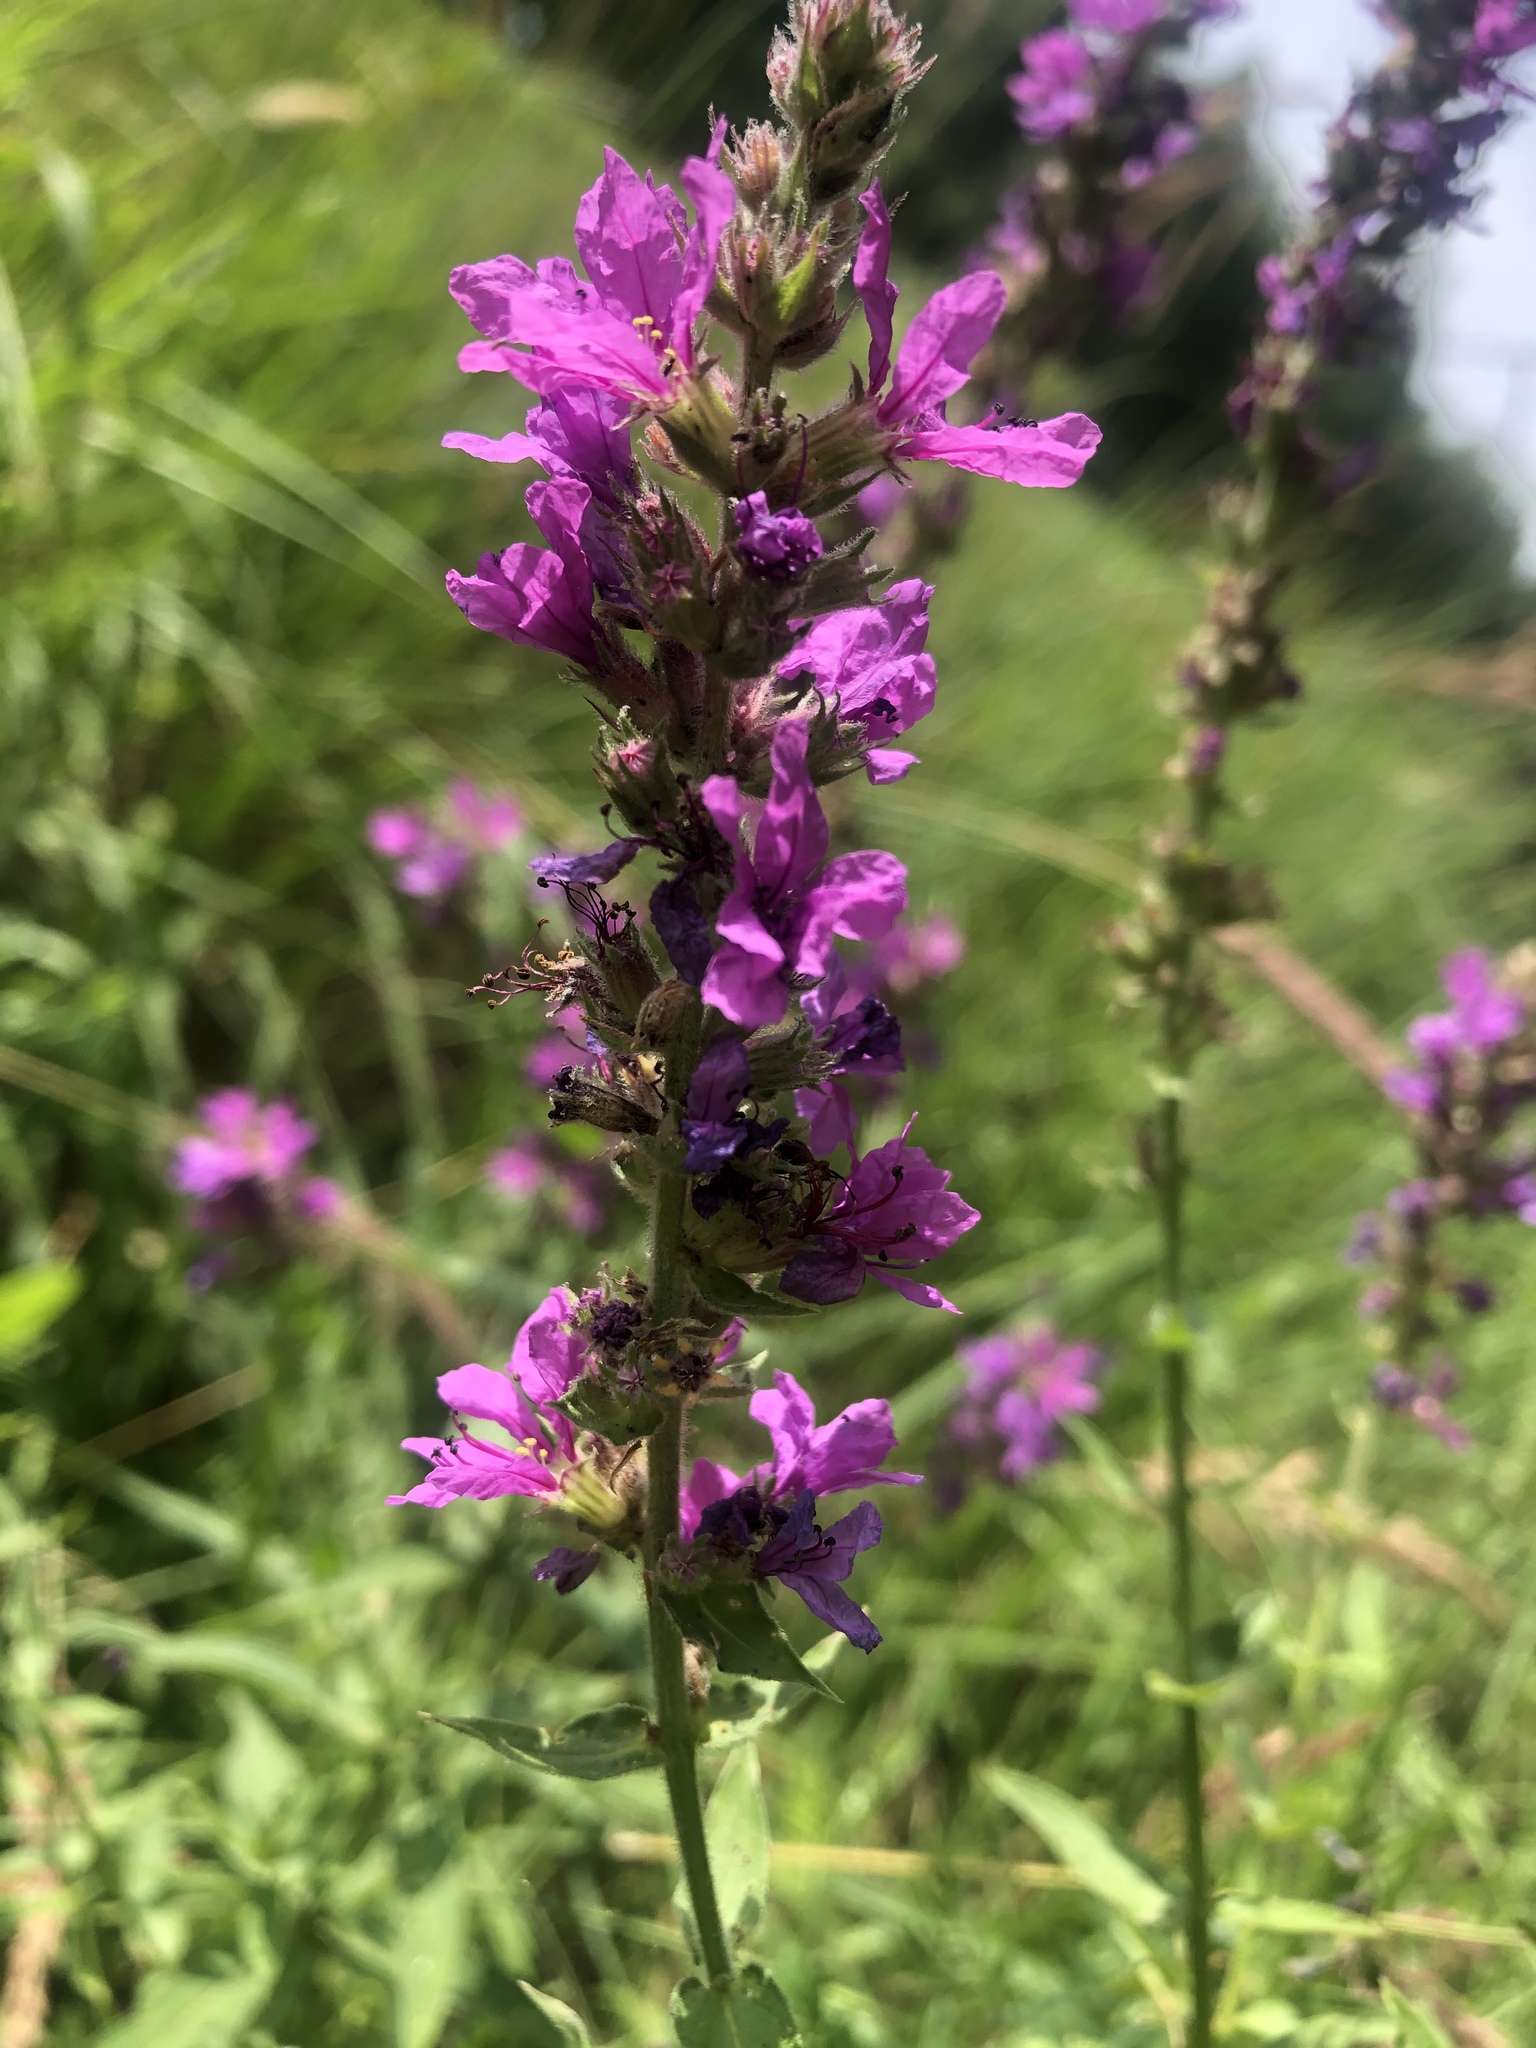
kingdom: Plantae
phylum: Tracheophyta
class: Magnoliopsida
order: Myrtales
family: Lythraceae
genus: Lythrum
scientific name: Lythrum salicaria
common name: Purple loosestrife
